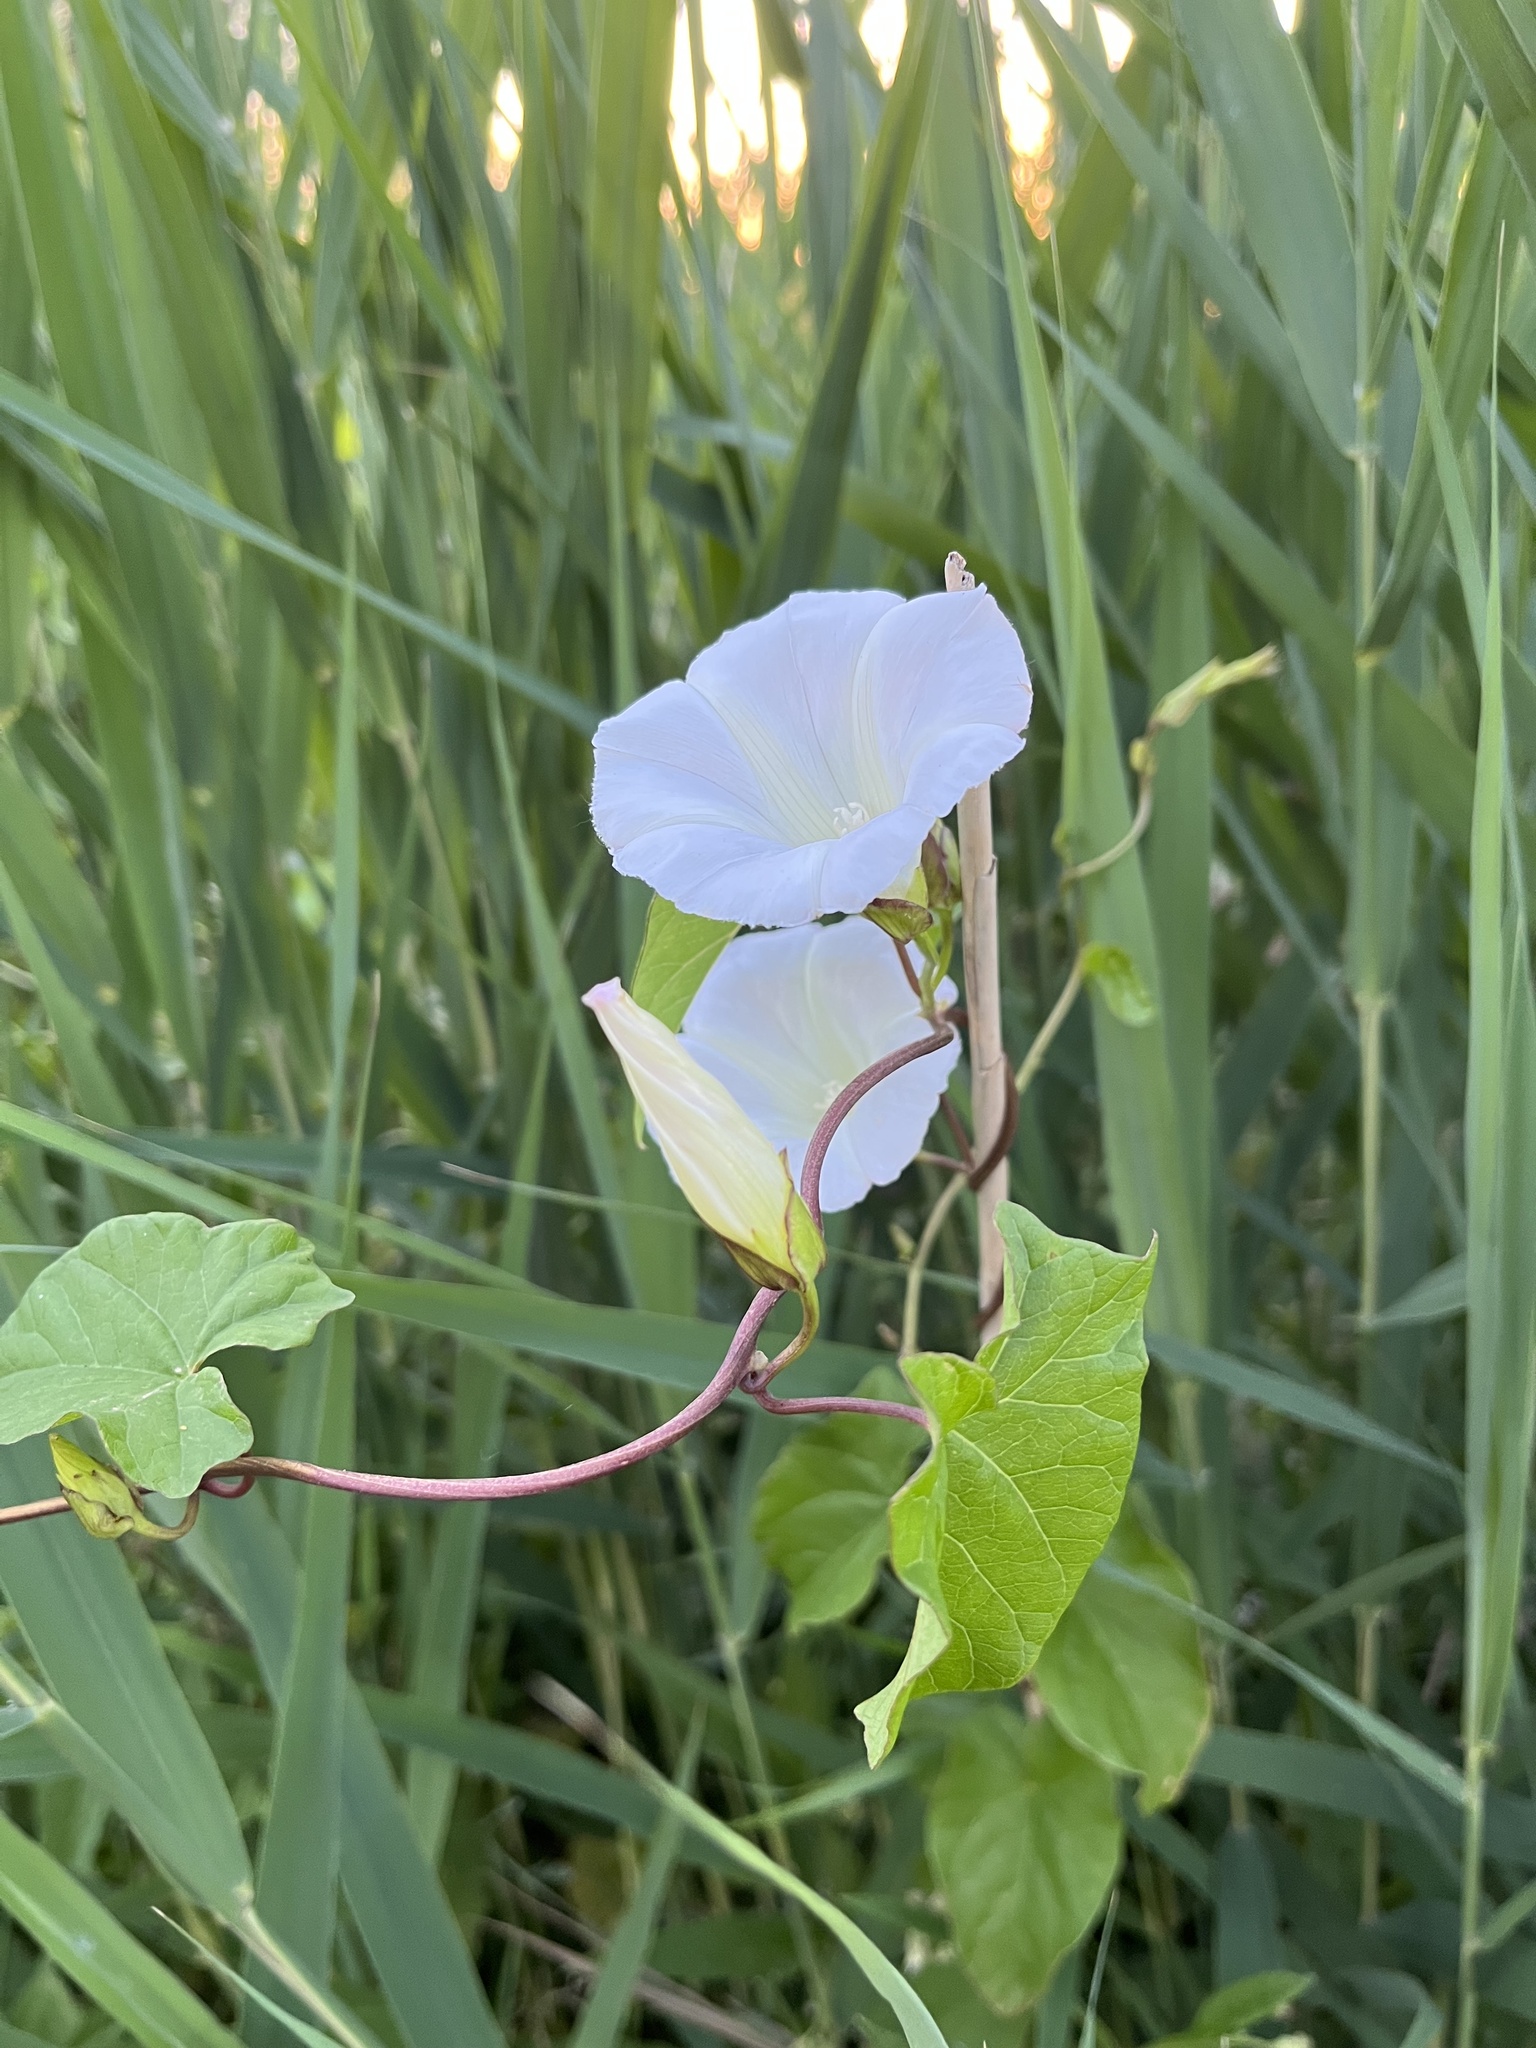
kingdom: Plantae
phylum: Tracheophyta
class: Magnoliopsida
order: Solanales
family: Convolvulaceae
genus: Calystegia
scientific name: Calystegia sepium
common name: Hedge bindweed
